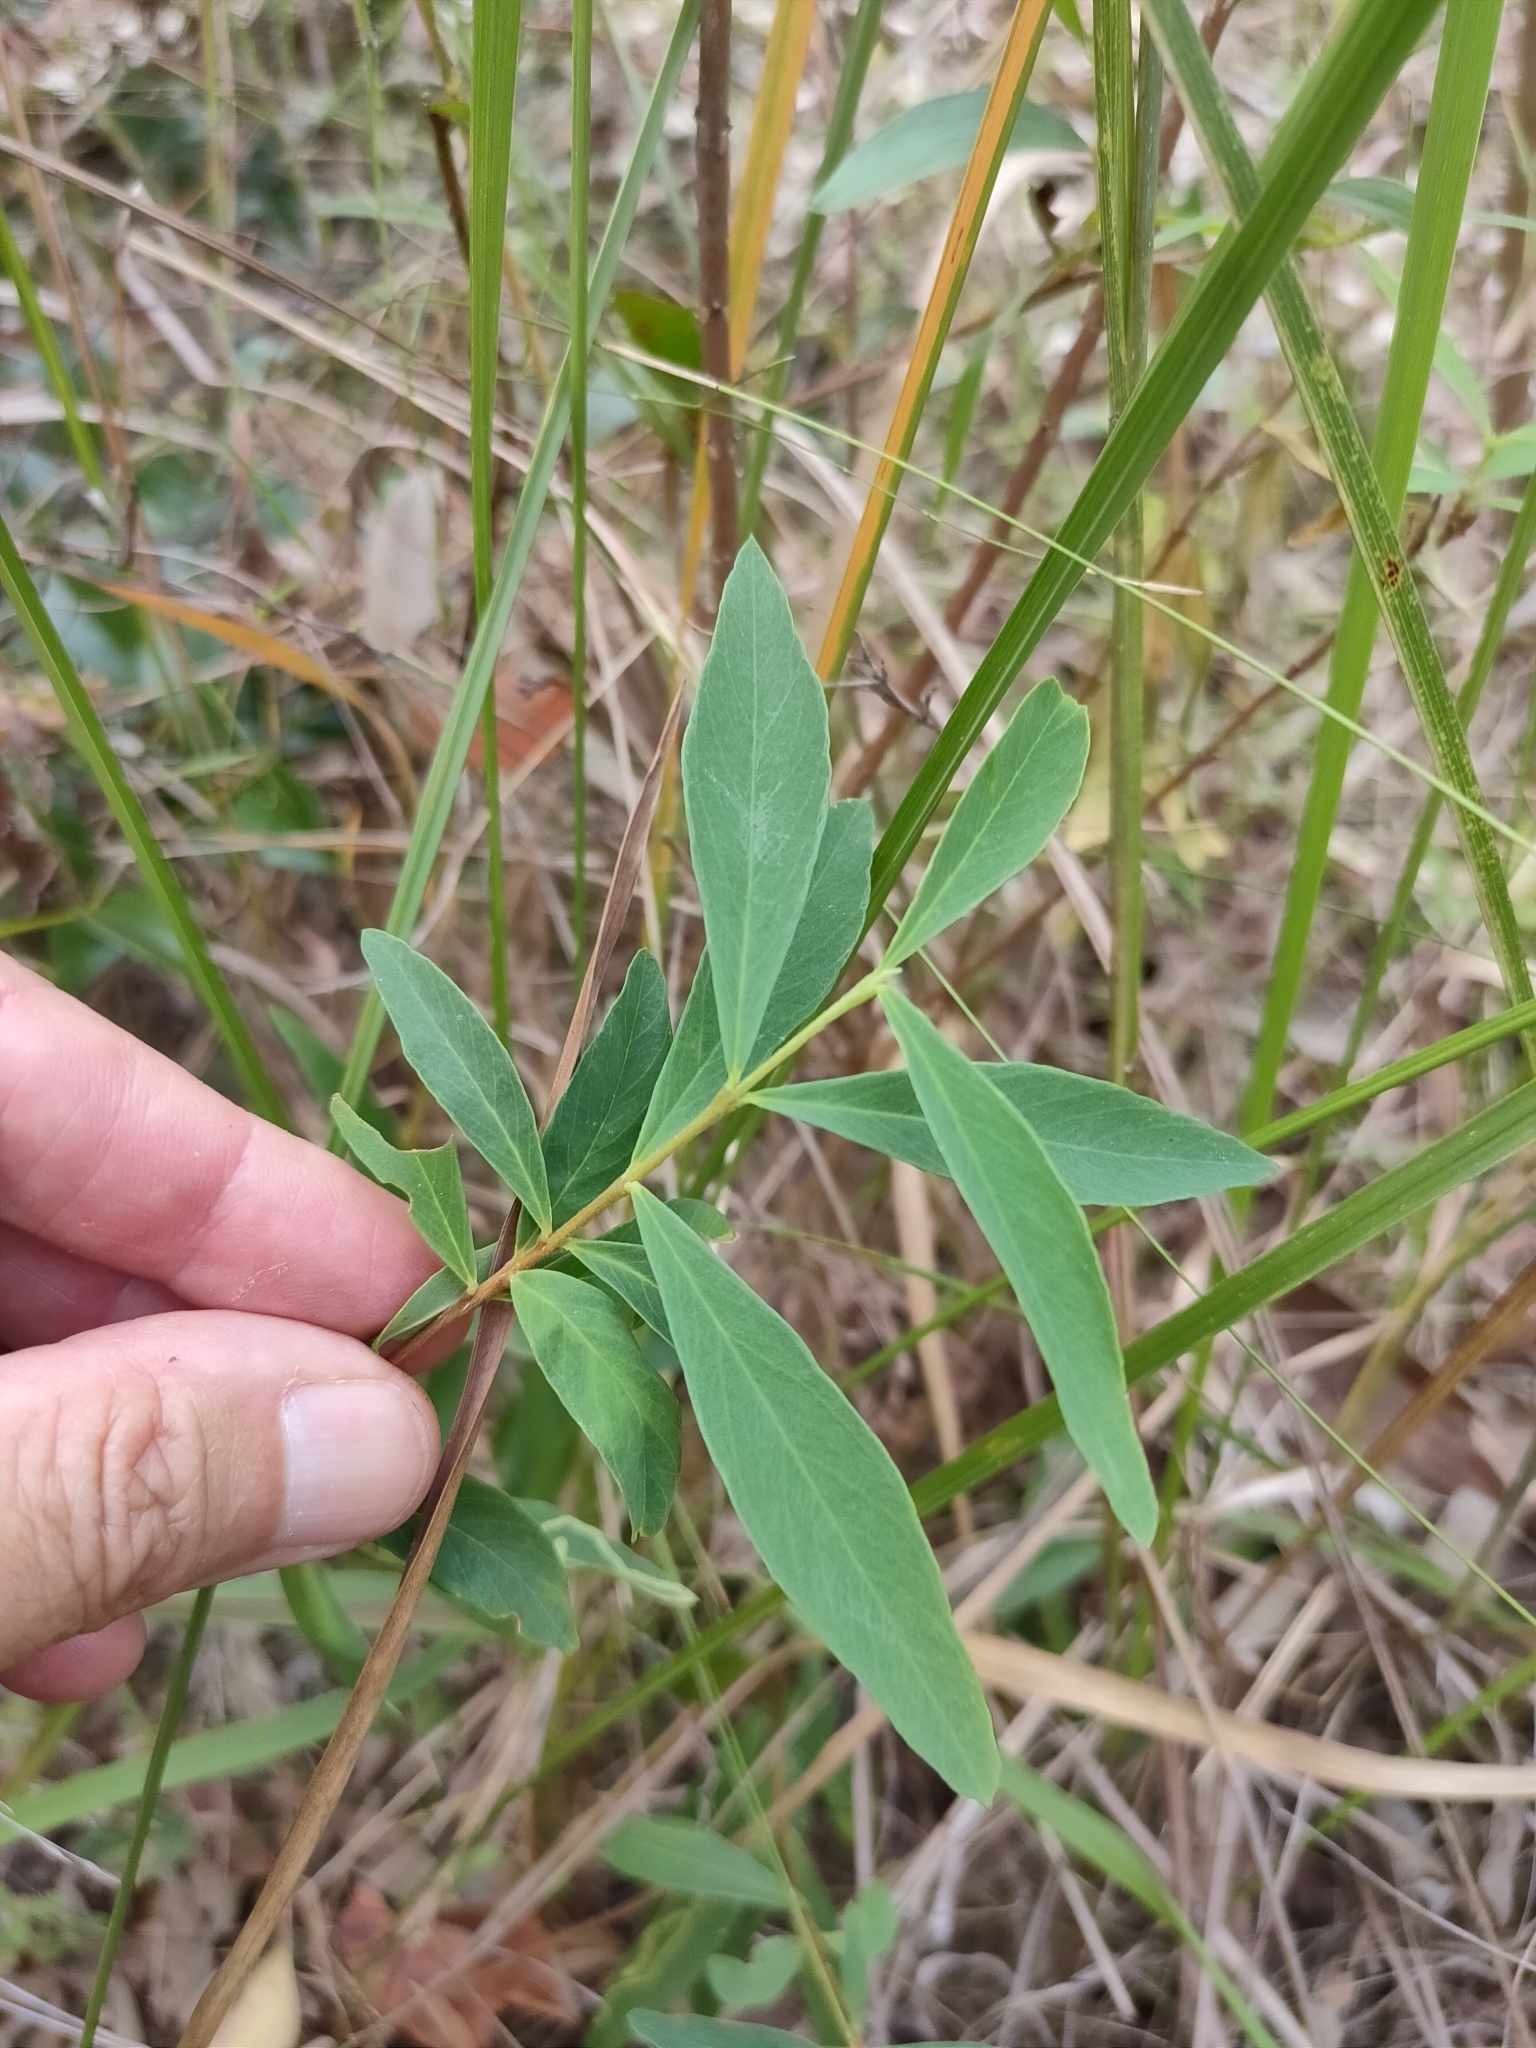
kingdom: Plantae
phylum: Tracheophyta
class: Magnoliopsida
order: Malvales
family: Thymelaeaceae
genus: Wikstroemia
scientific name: Wikstroemia indica
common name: Tiebush
